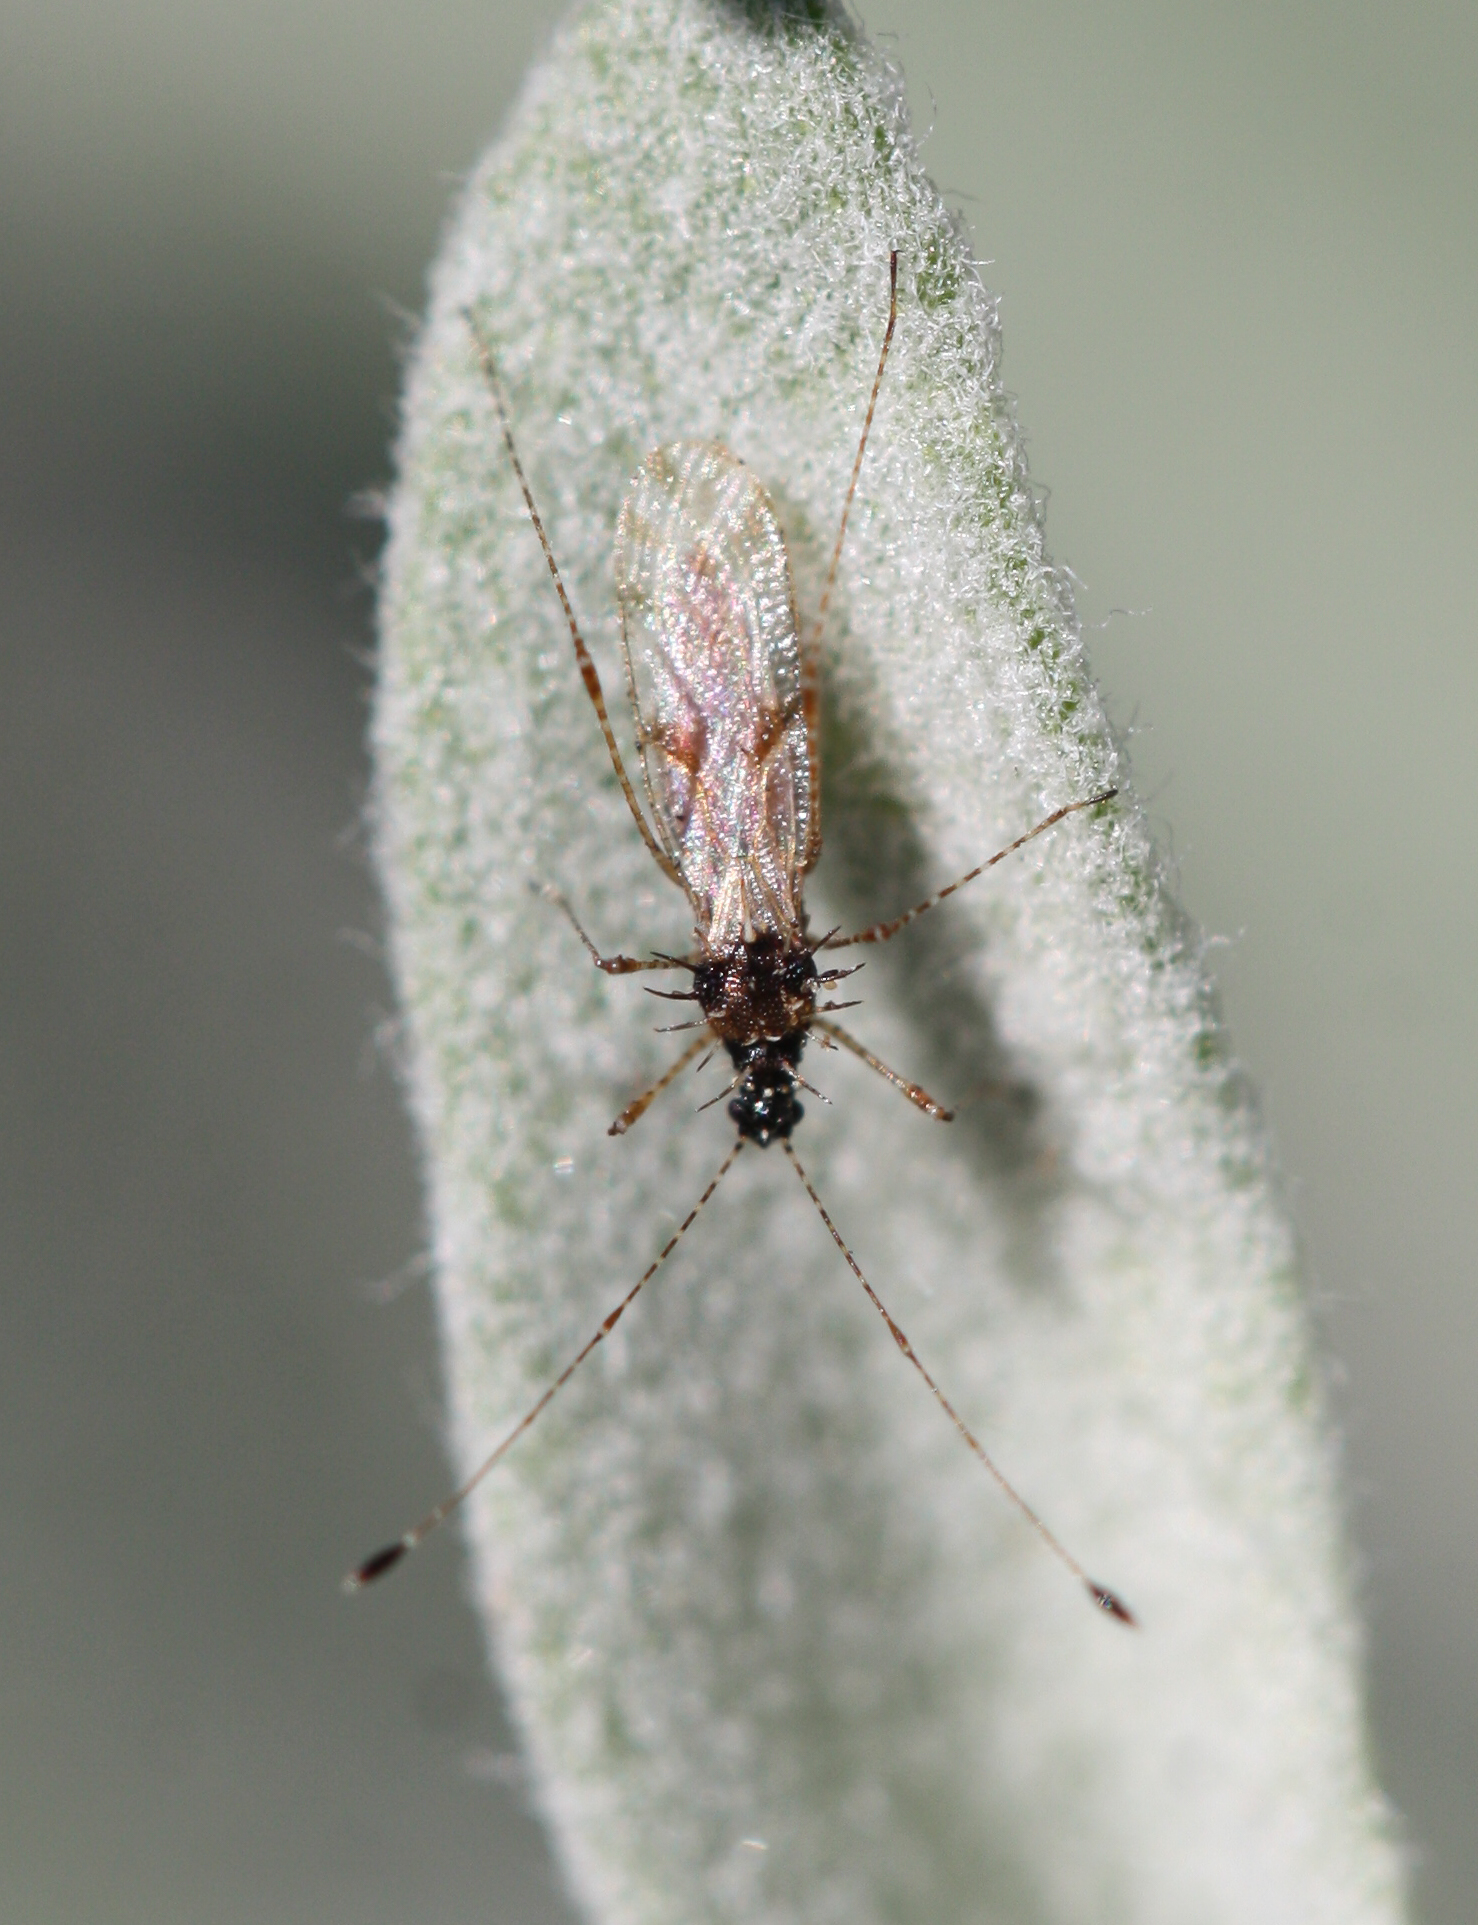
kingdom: Animalia
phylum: Arthropoda
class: Insecta
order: Hemiptera
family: Berytidae
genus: Pronotacantha
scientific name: Pronotacantha annulata
